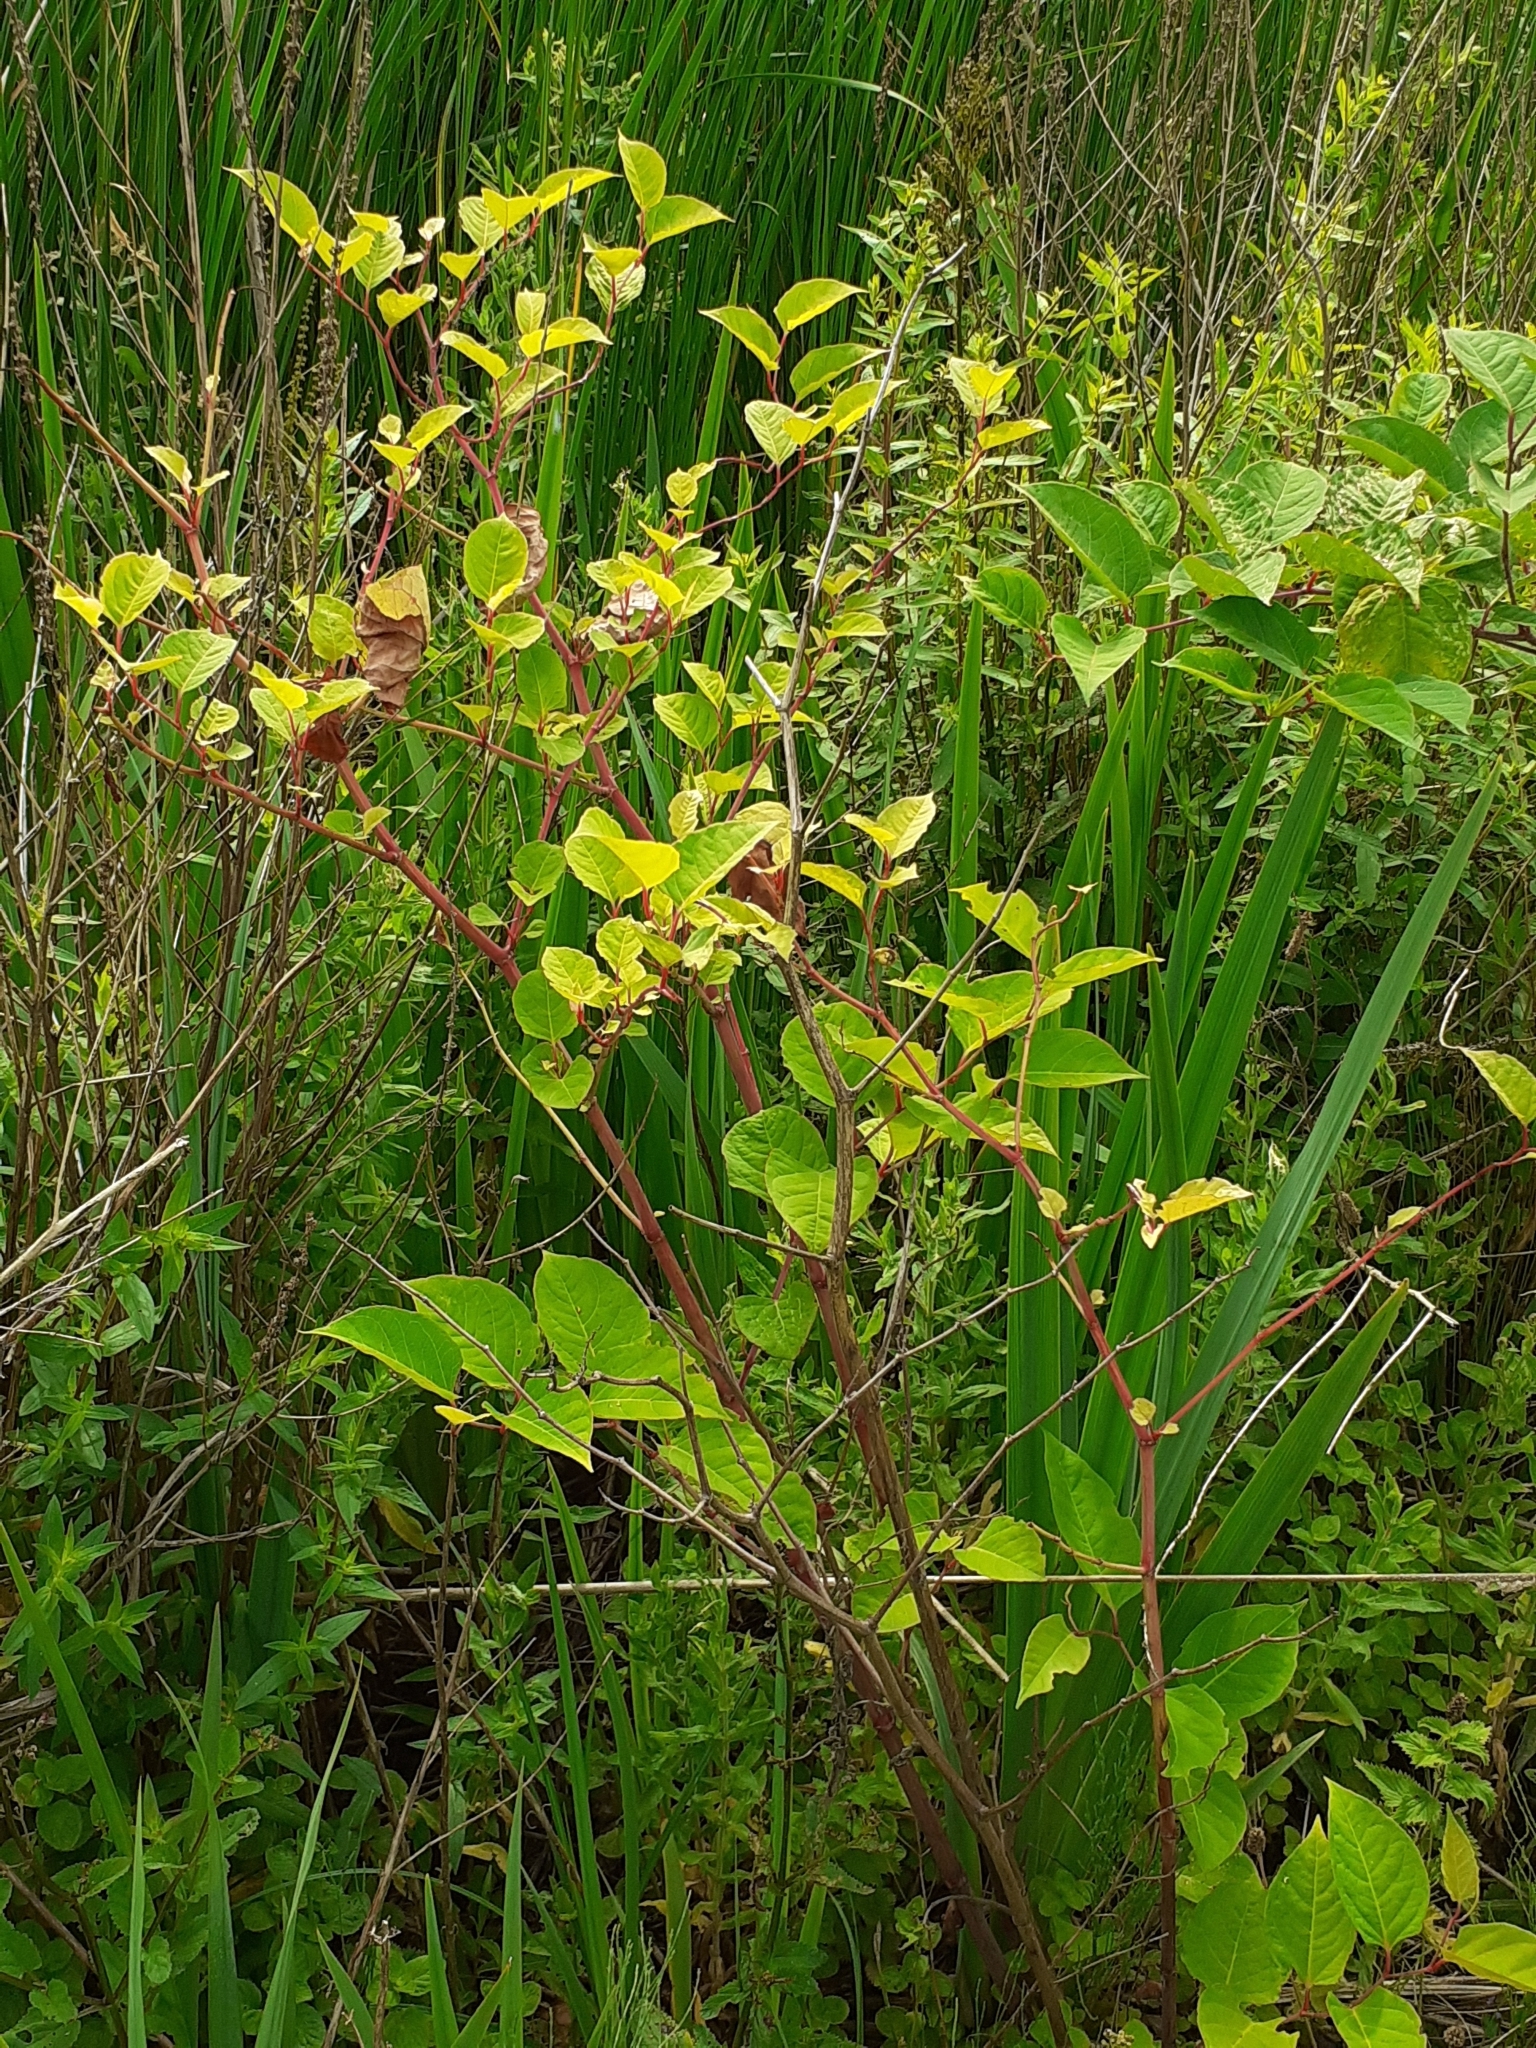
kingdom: Plantae
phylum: Tracheophyta
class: Magnoliopsida
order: Caryophyllales
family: Polygonaceae
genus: Reynoutria
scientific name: Reynoutria japonica
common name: Japanese knotweed
